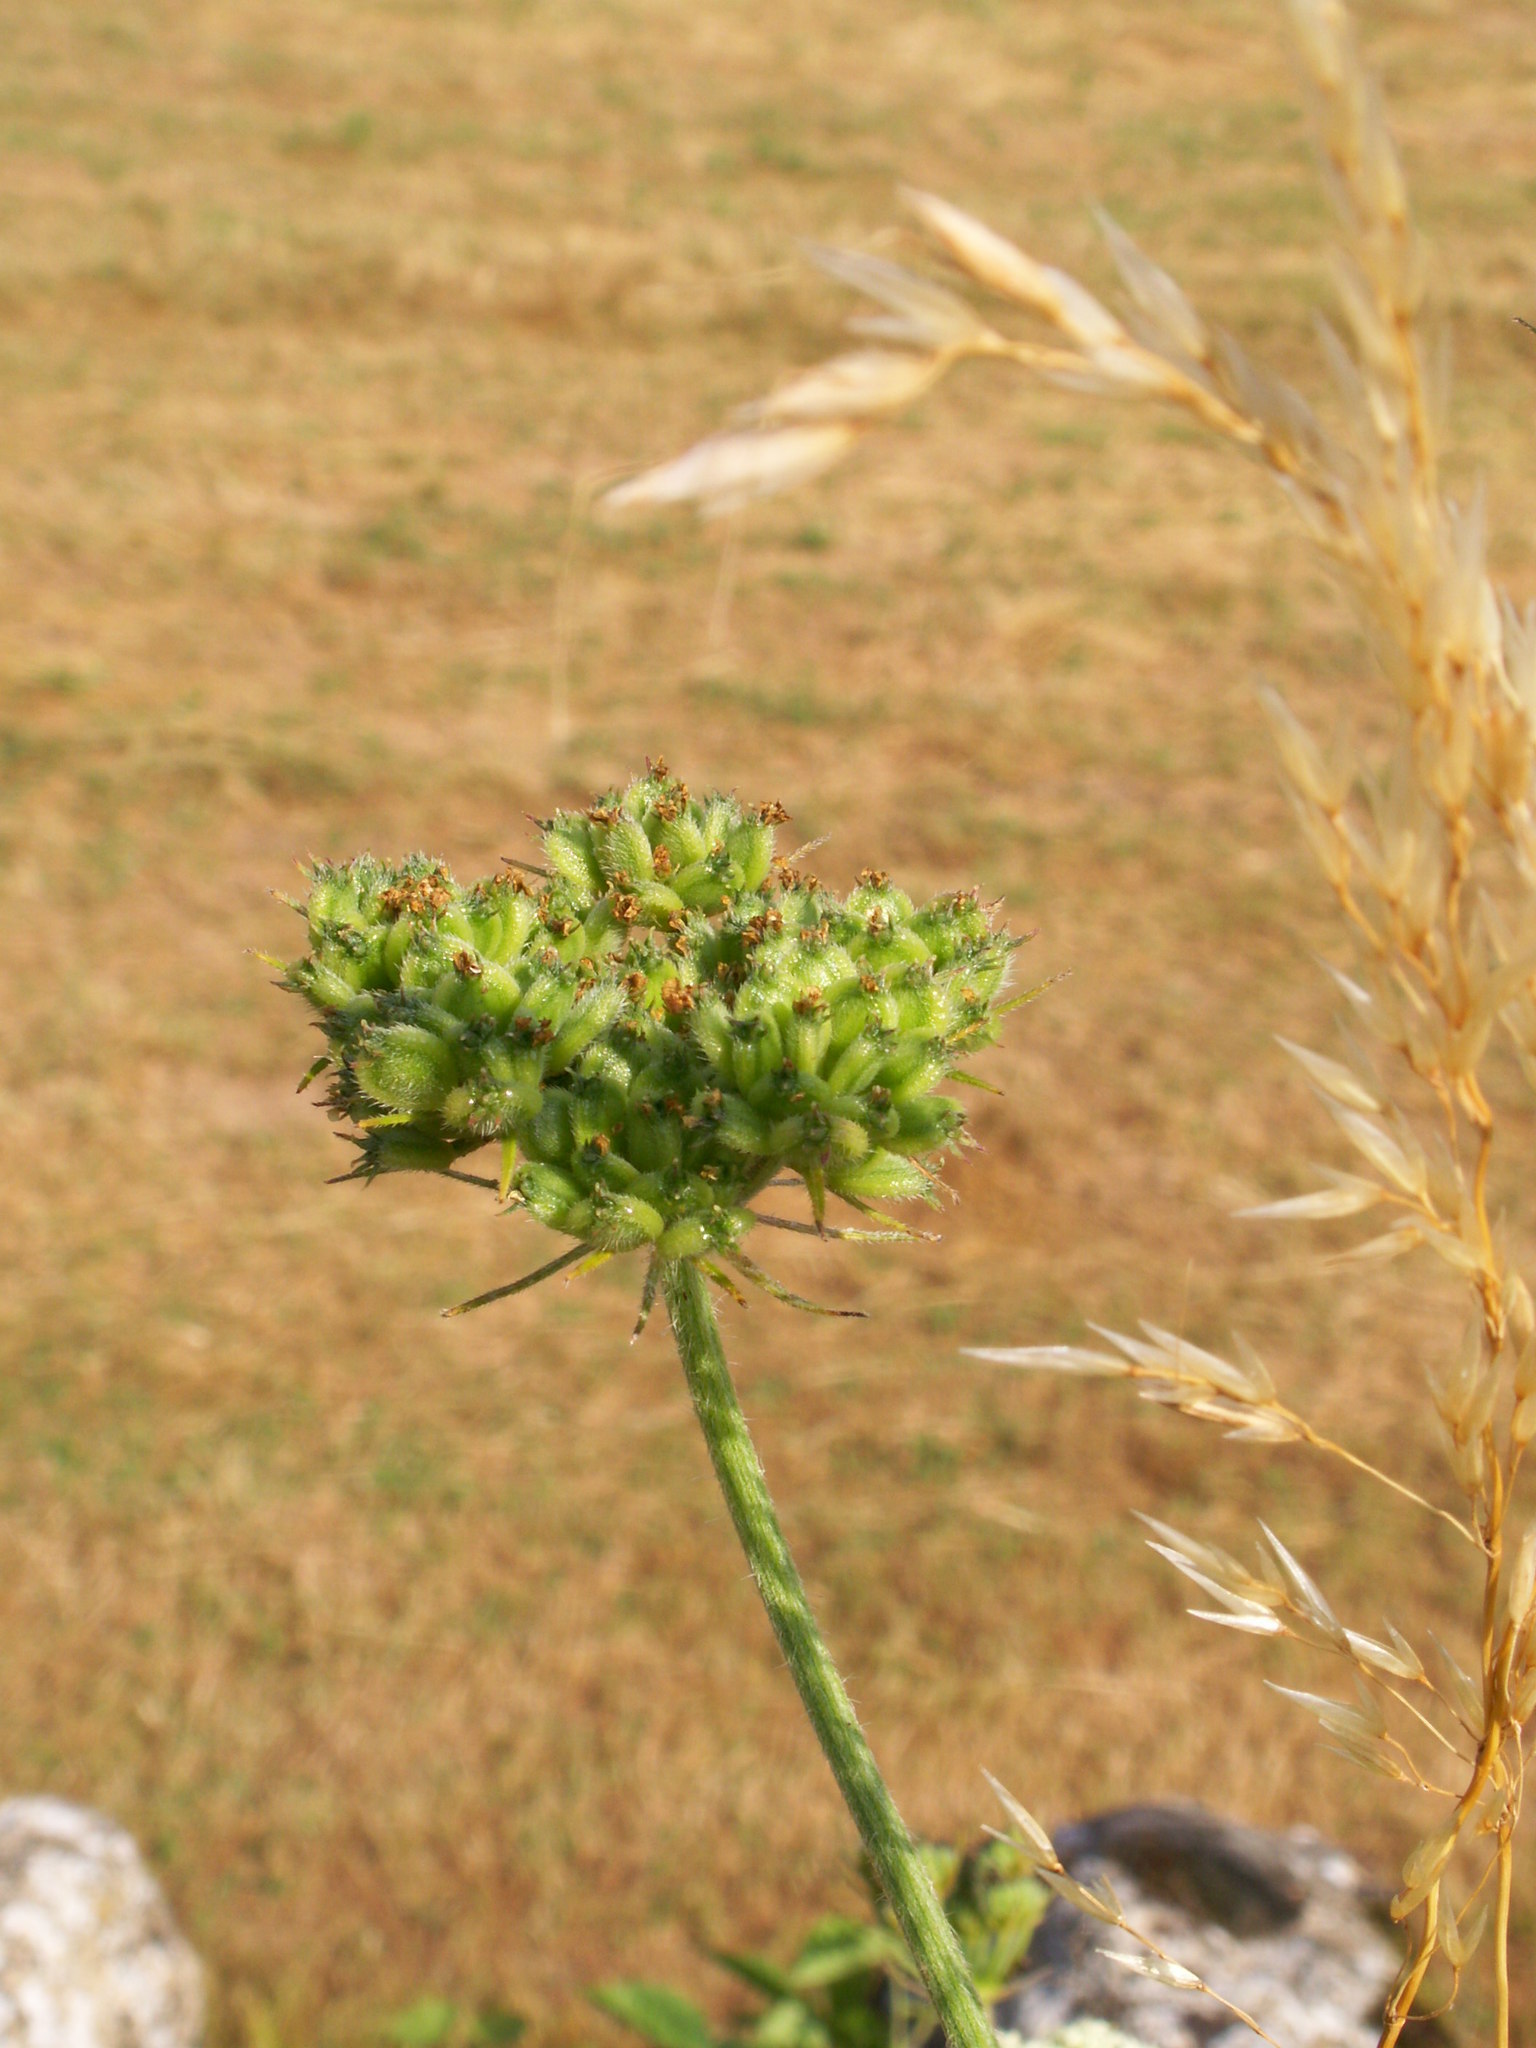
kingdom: Plantae
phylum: Tracheophyta
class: Magnoliopsida
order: Apiales
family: Apiaceae
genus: Tordylium
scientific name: Tordylium maximum
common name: Hartwort
